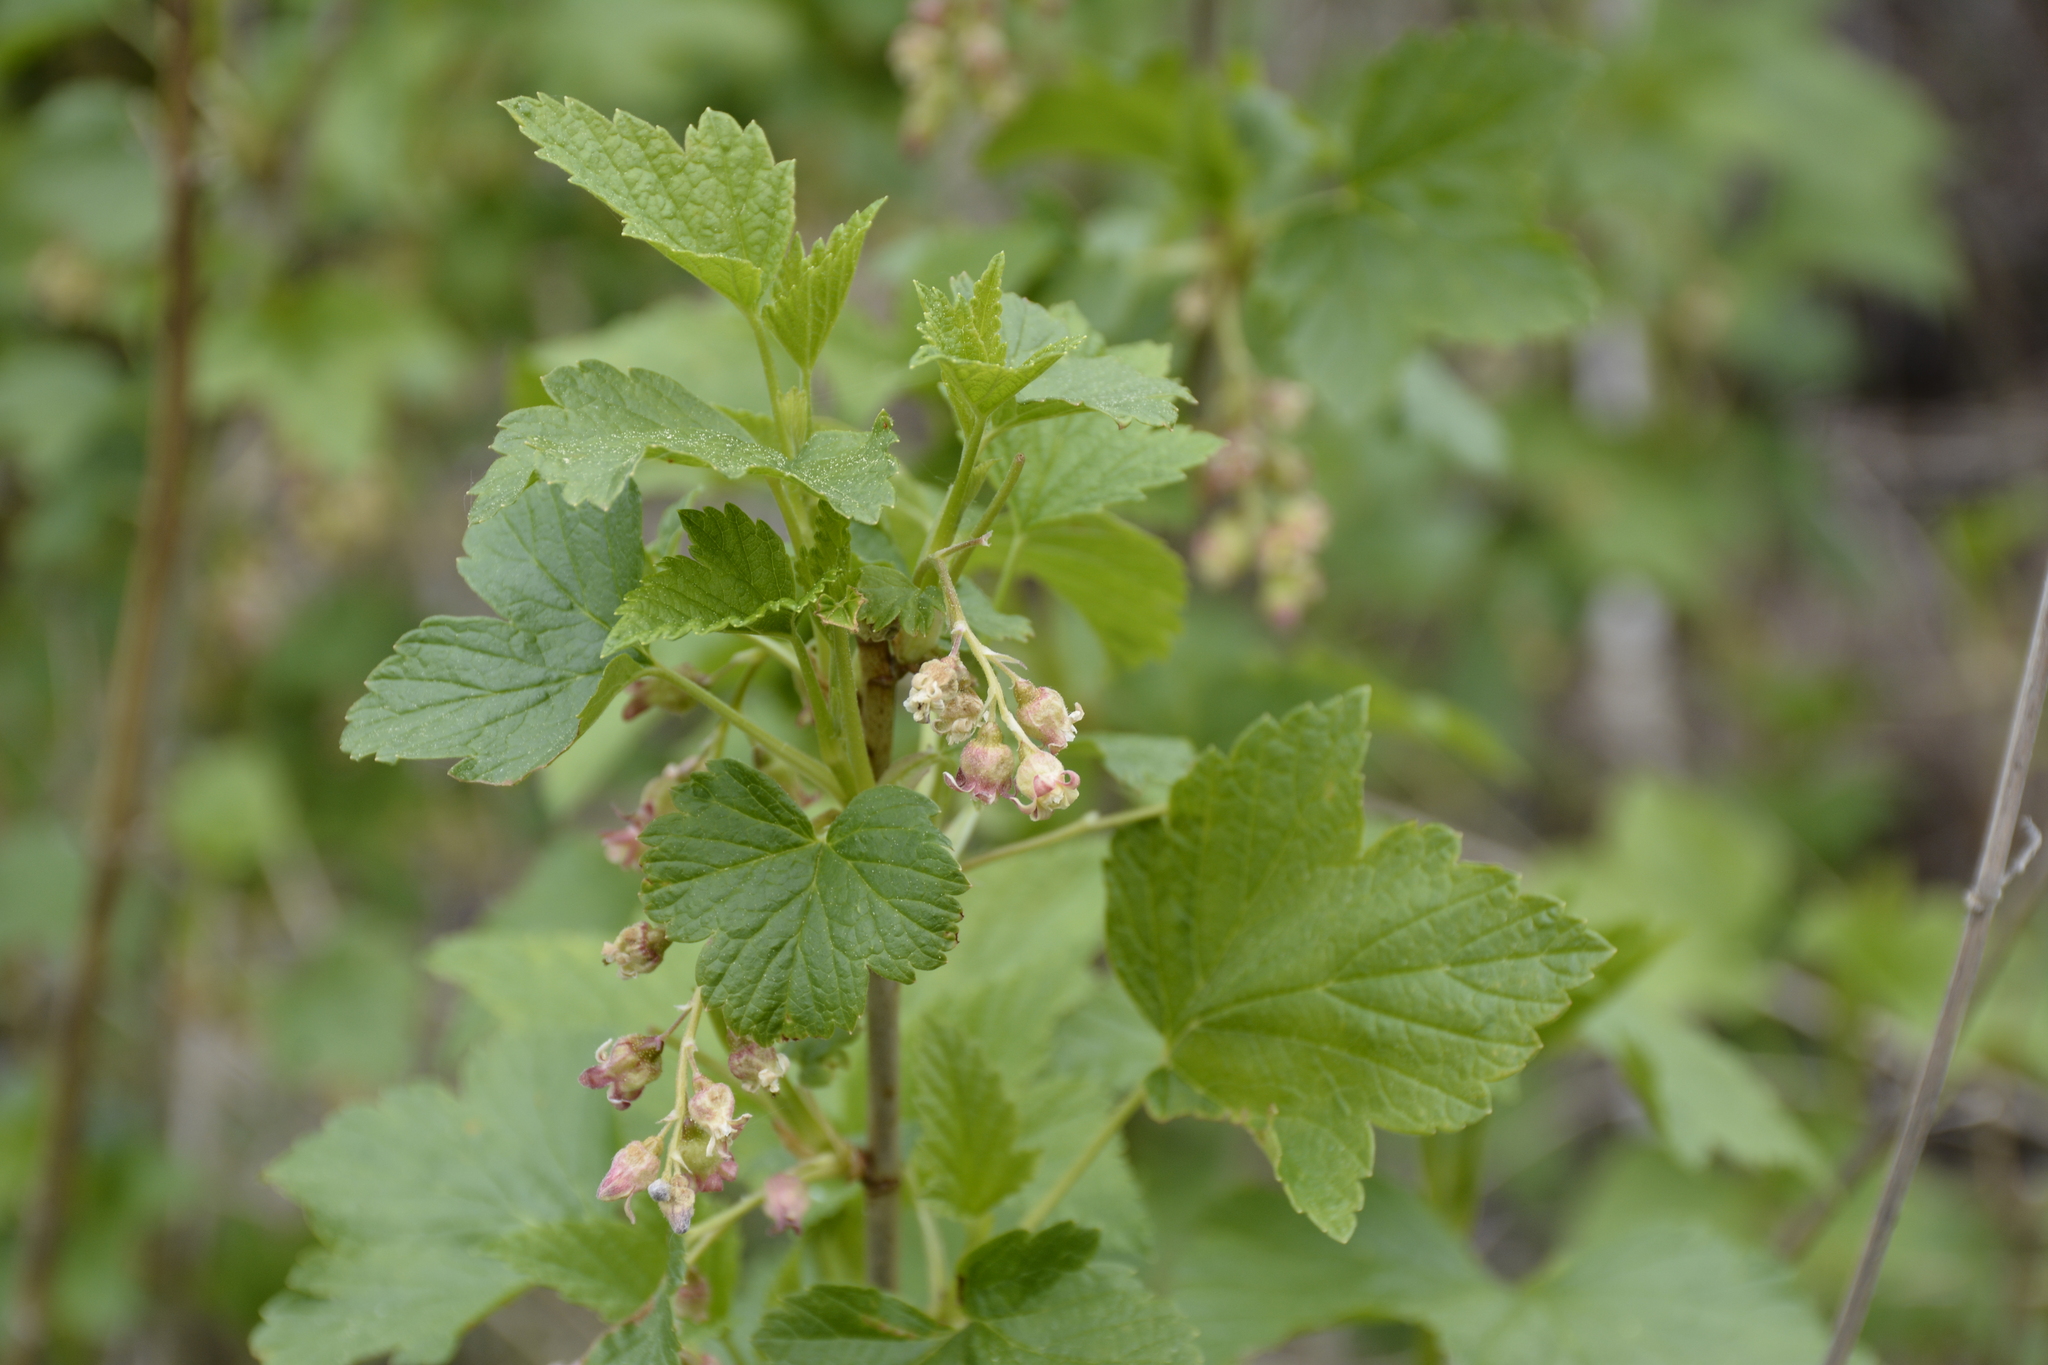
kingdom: Plantae
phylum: Tracheophyta
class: Magnoliopsida
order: Saxifragales
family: Grossulariaceae
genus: Ribes
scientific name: Ribes nigrum
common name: Black currant
